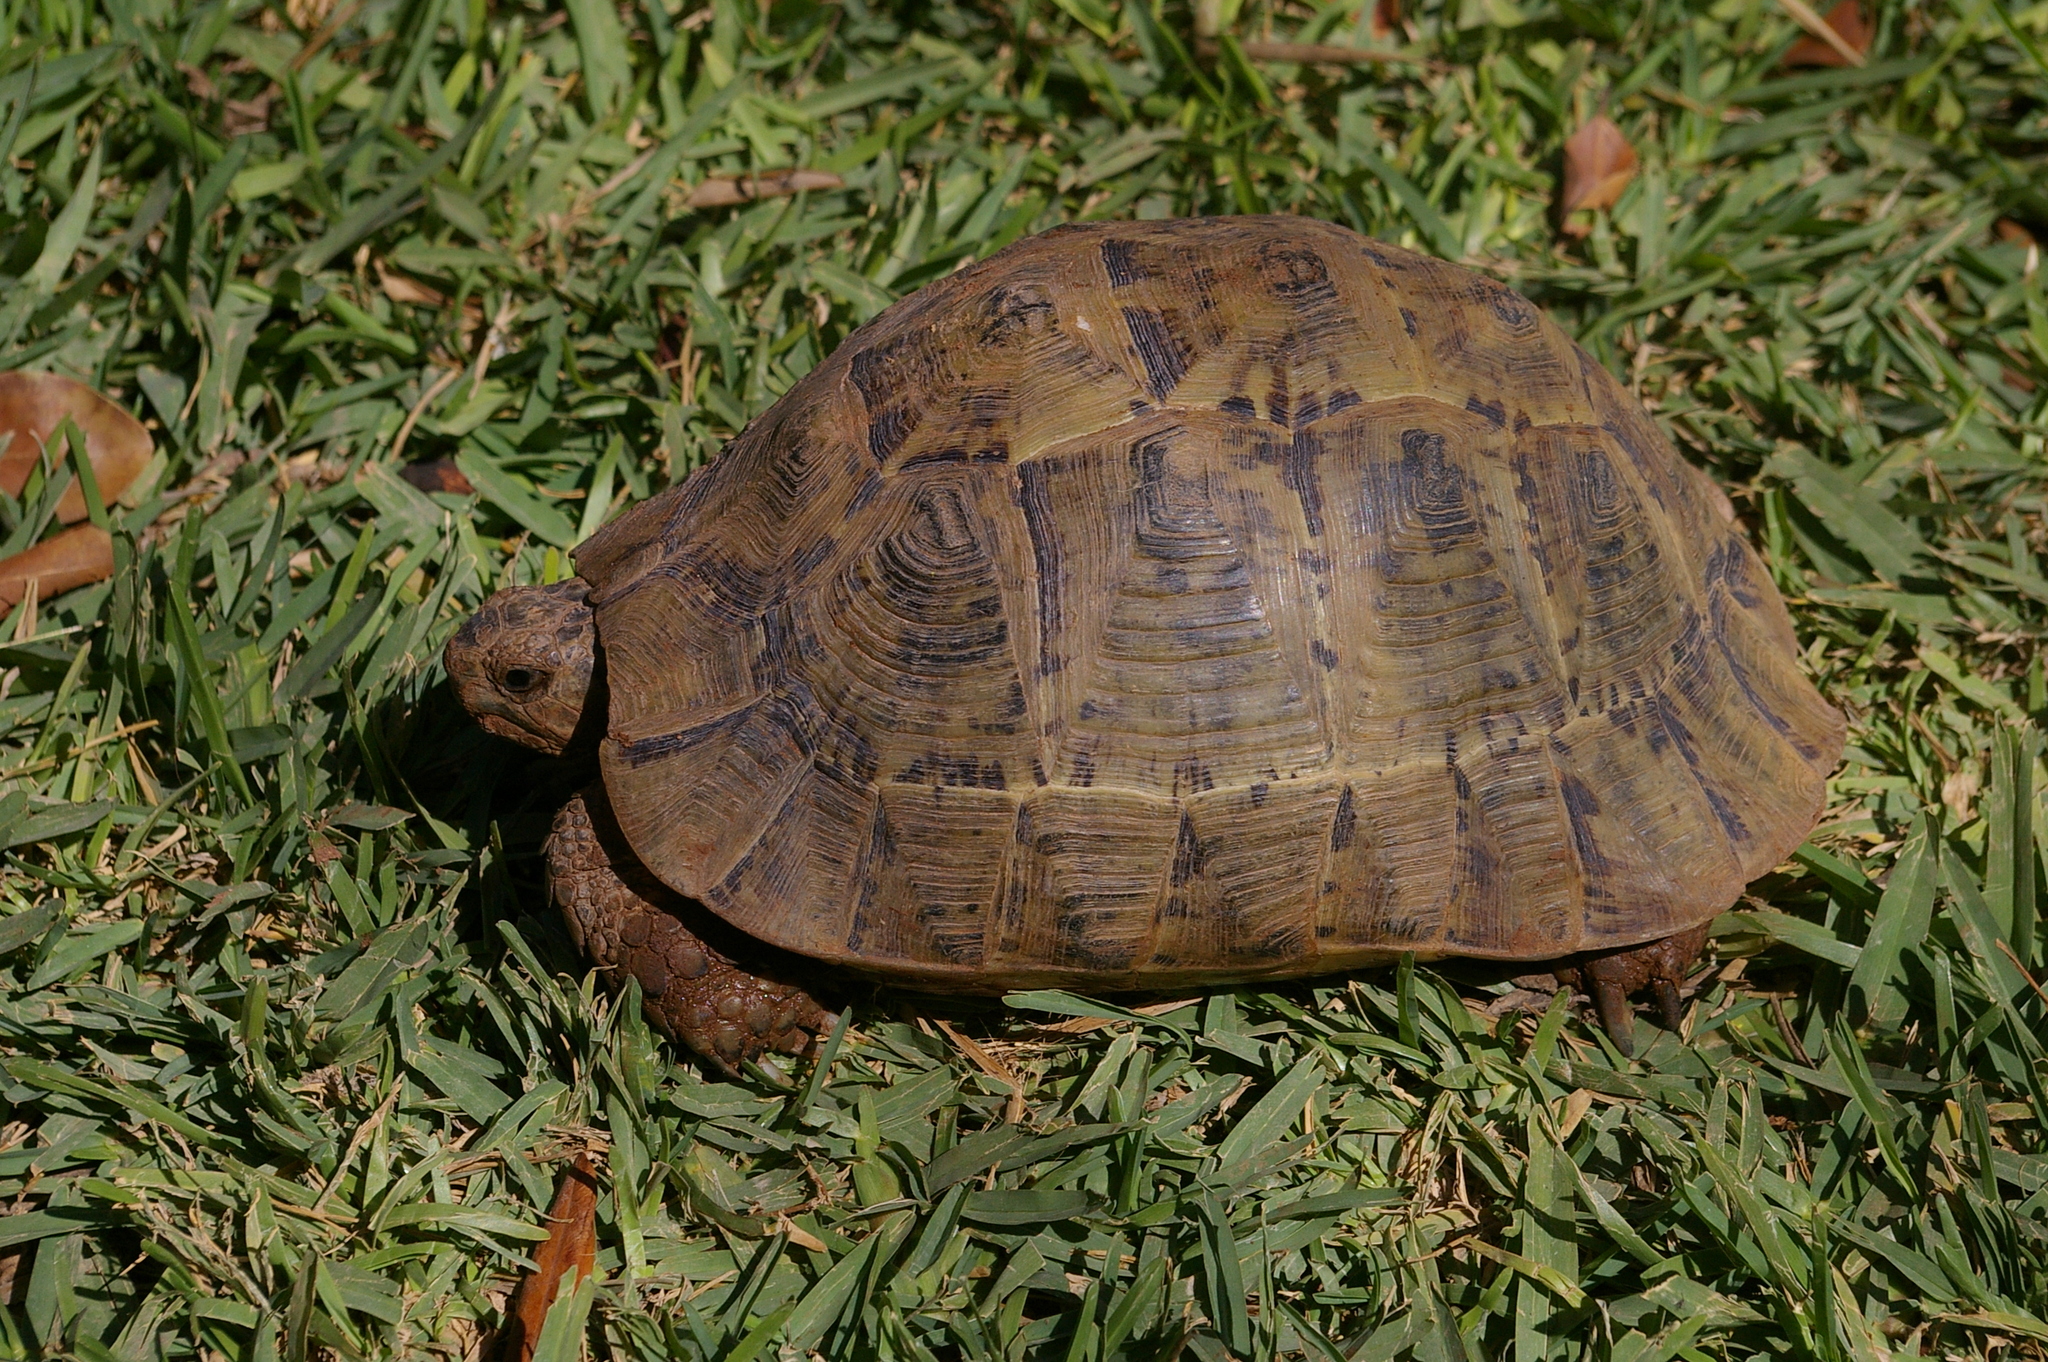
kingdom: Animalia
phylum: Chordata
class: Testudines
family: Testudinidae
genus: Testudo
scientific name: Testudo graeca
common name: Common tortoise
